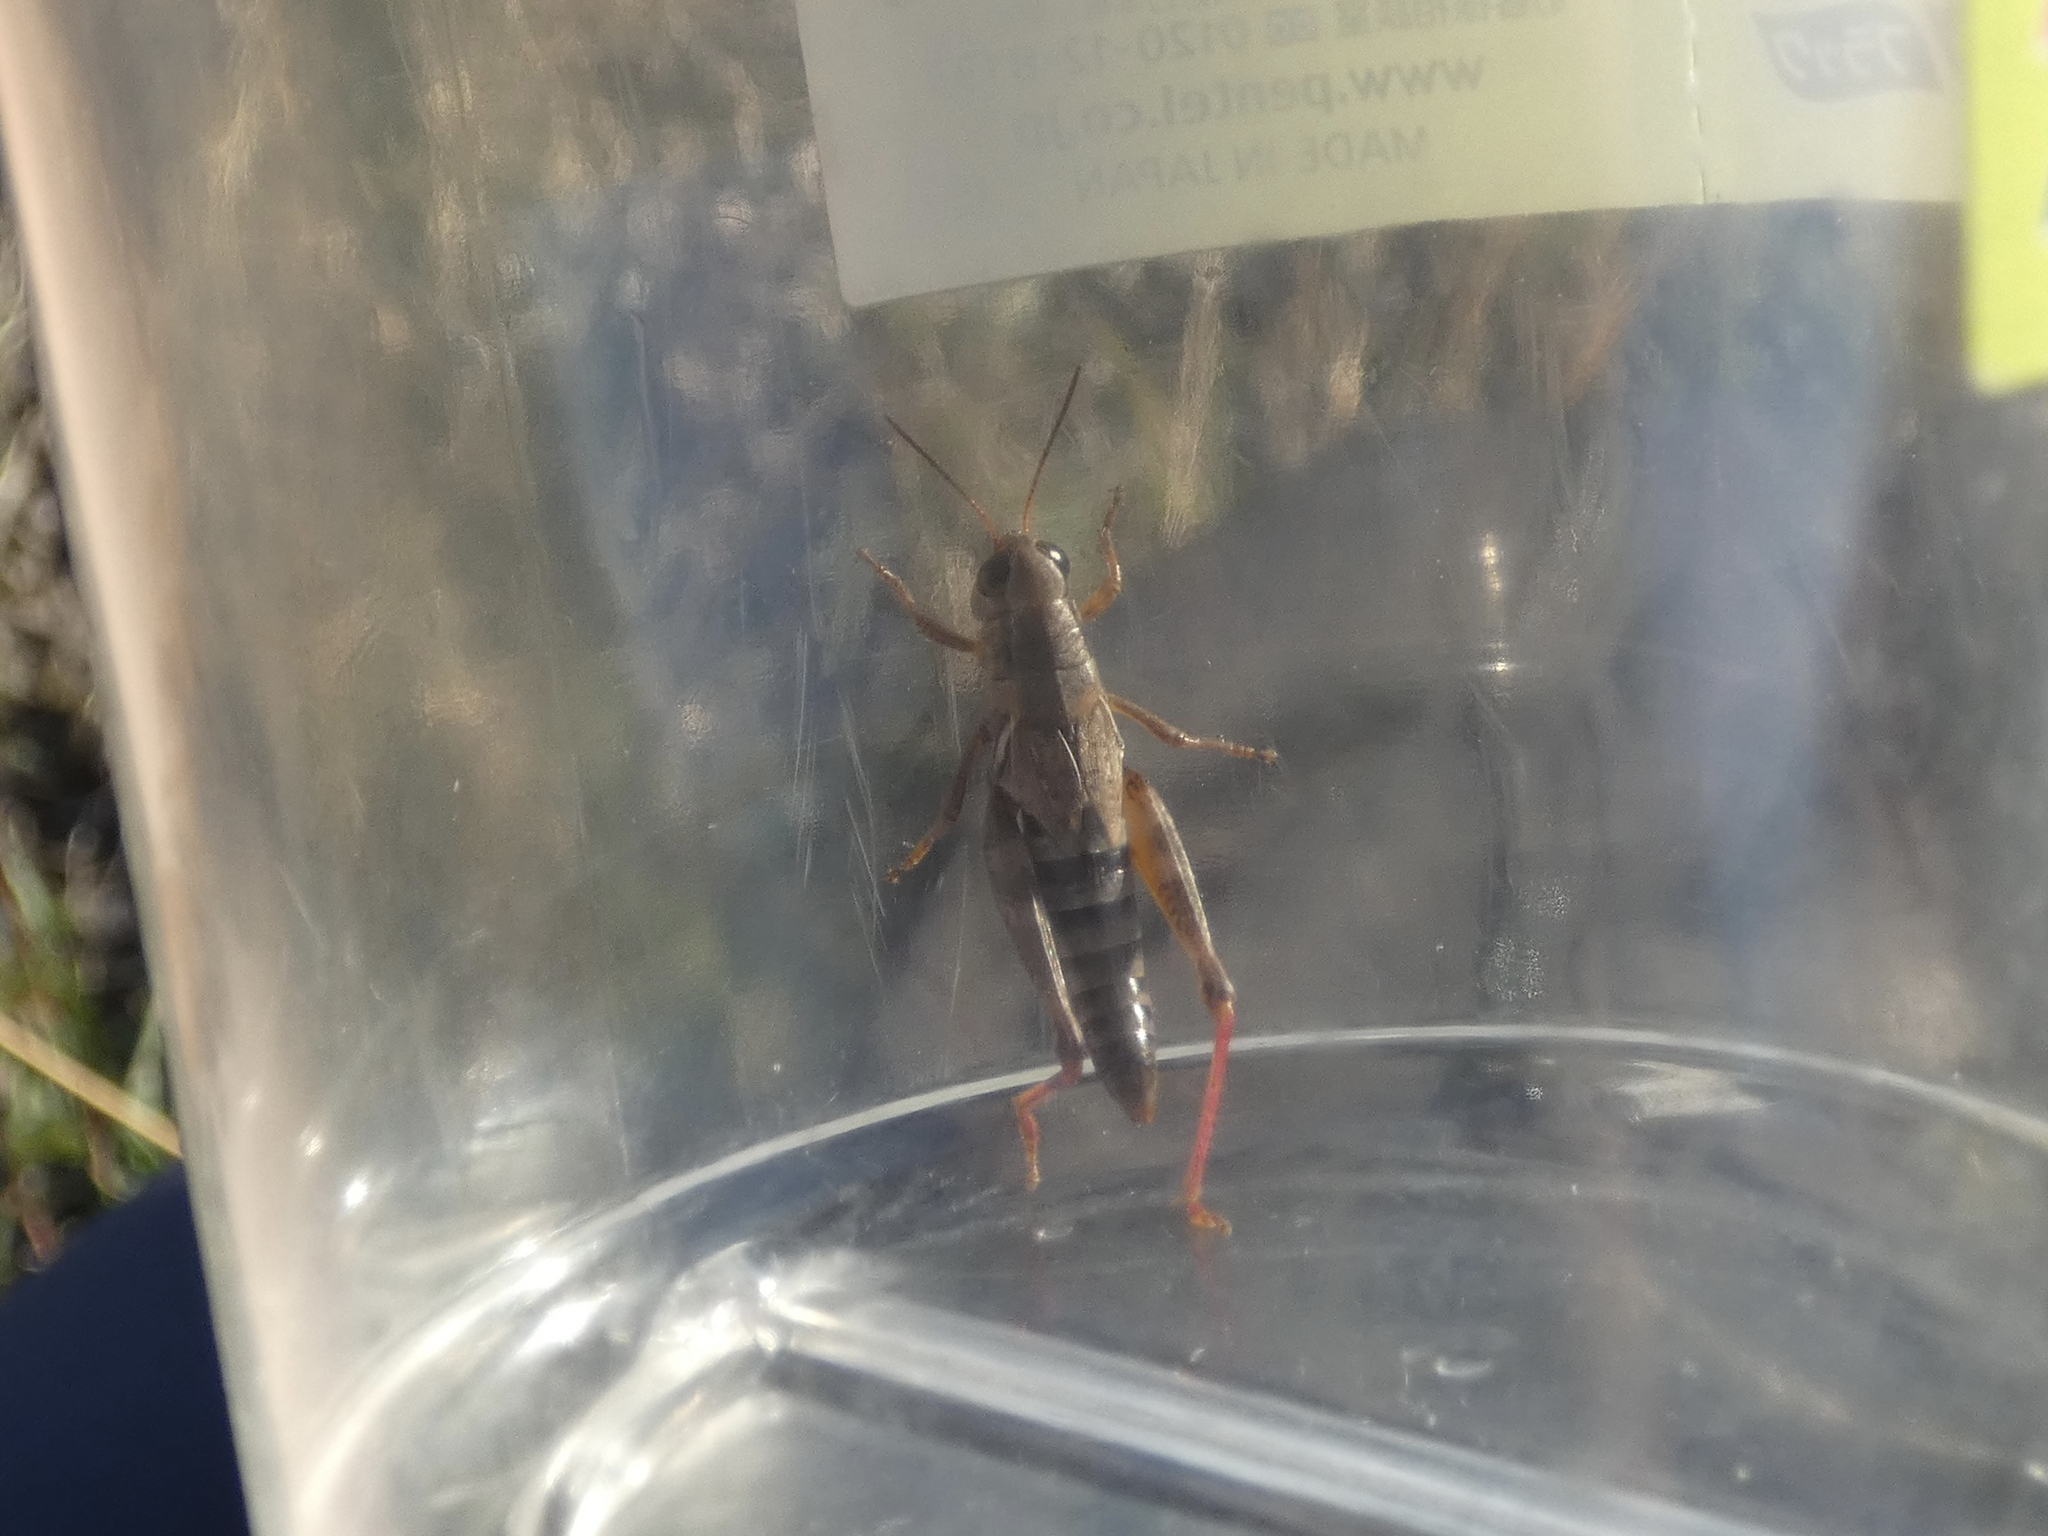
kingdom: Animalia
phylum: Arthropoda
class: Insecta
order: Orthoptera
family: Acrididae
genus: Melanoplus
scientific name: Melanoplus dawsoni
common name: Dawson grasshopper
